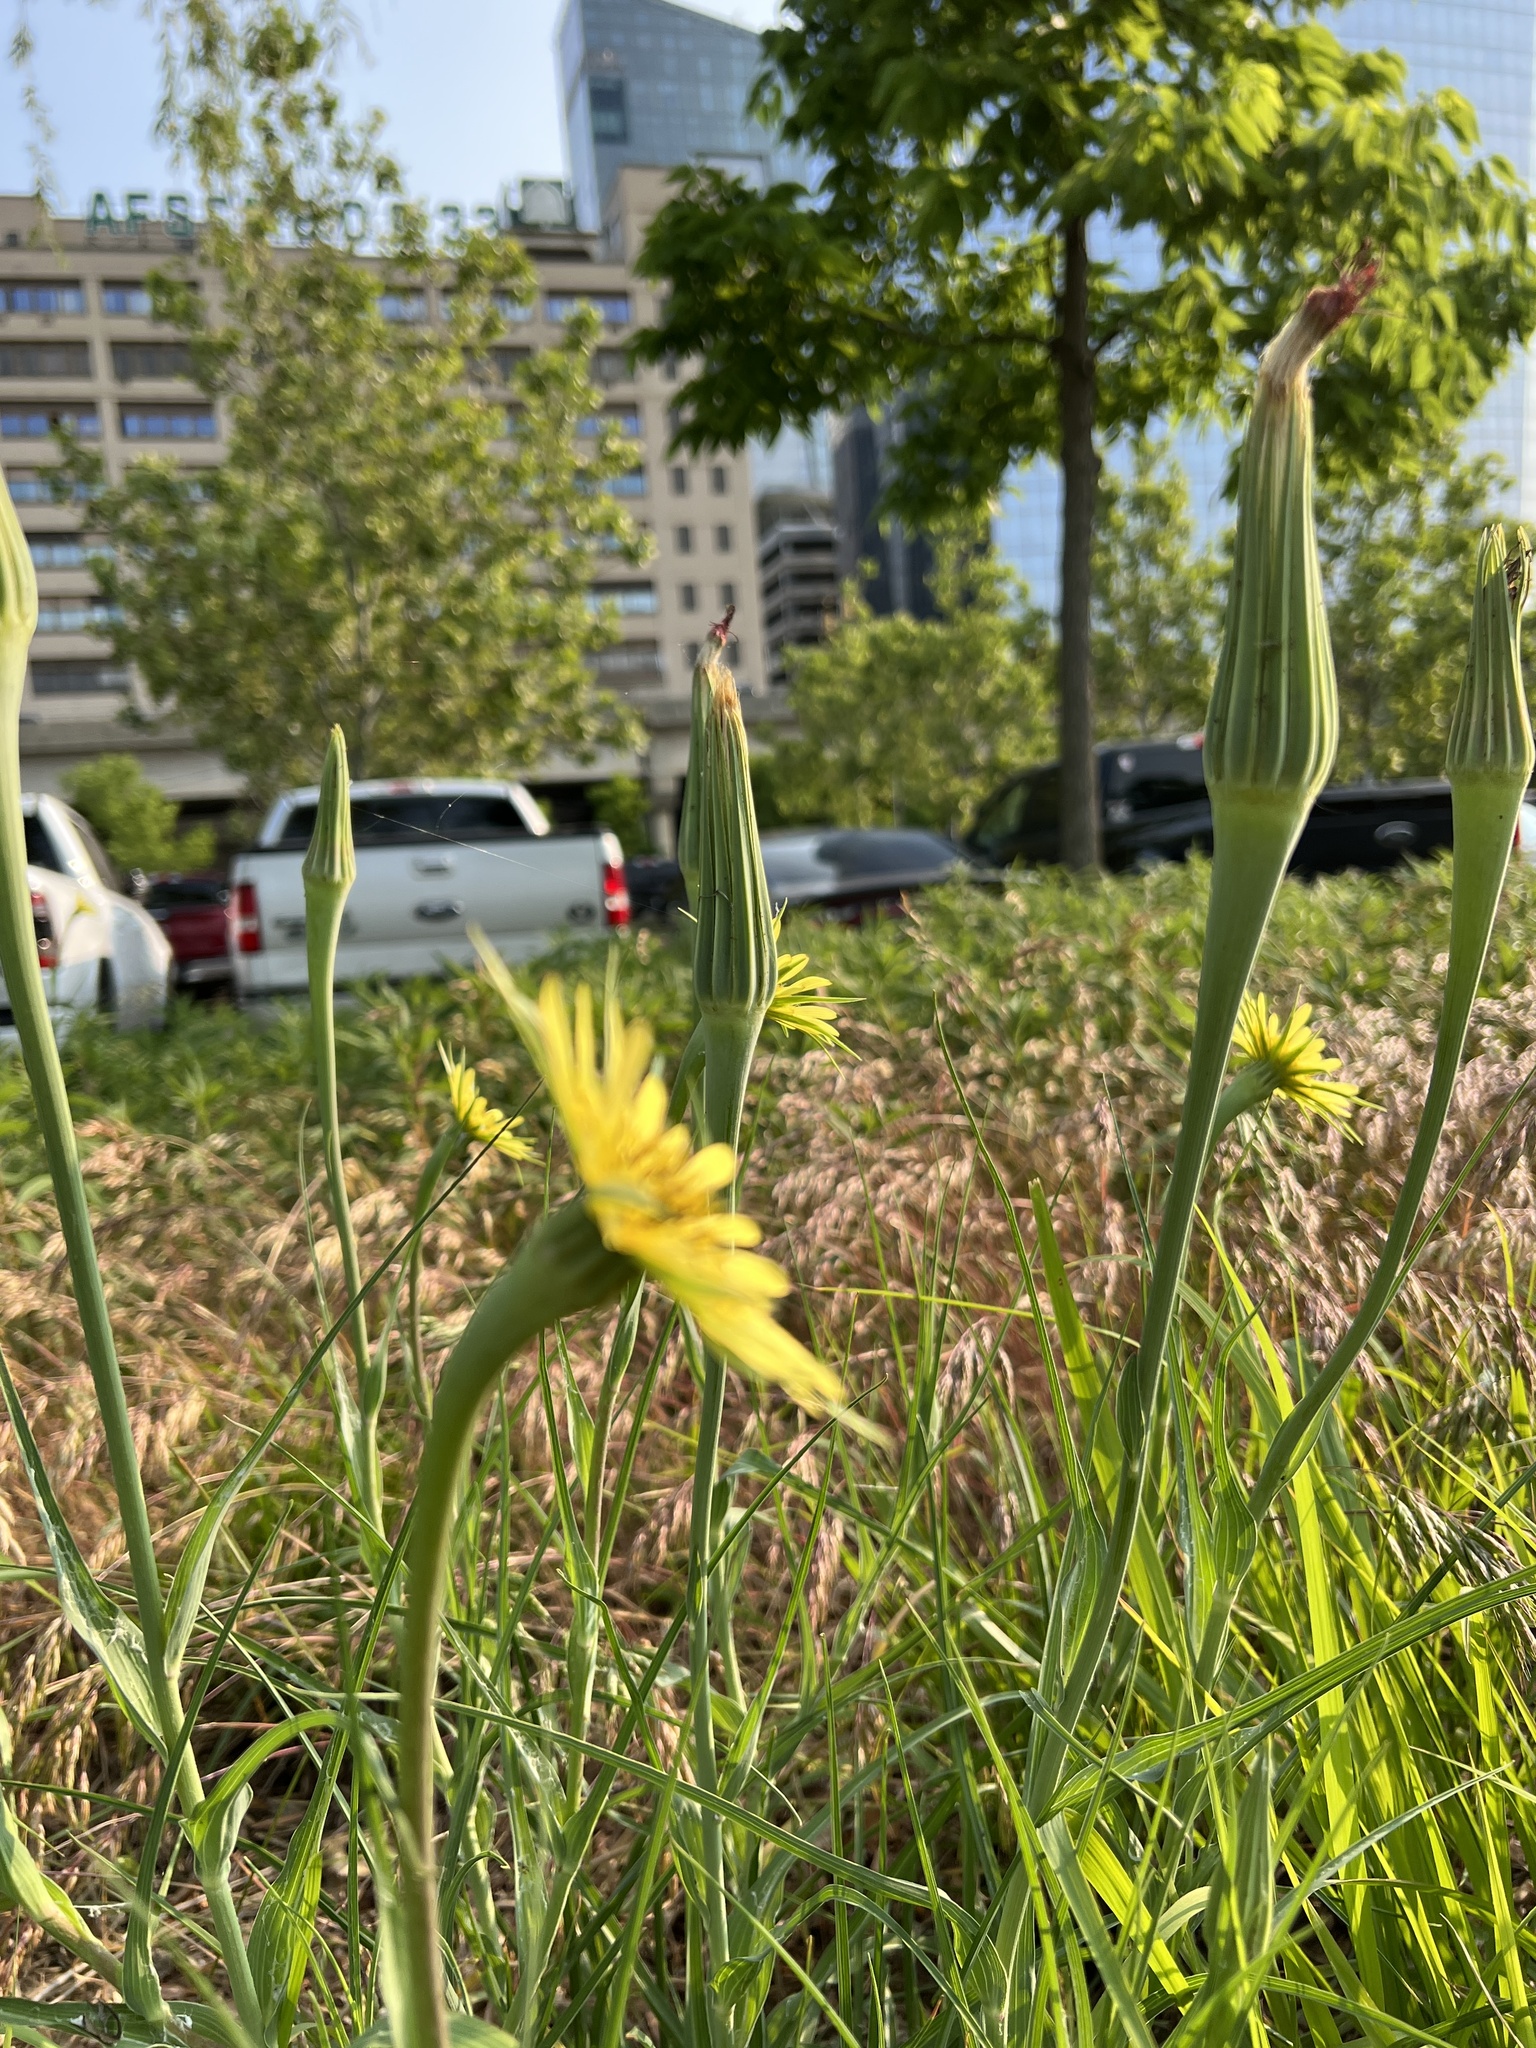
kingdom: Plantae
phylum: Tracheophyta
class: Magnoliopsida
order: Asterales
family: Asteraceae
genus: Tragopogon
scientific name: Tragopogon dubius
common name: Yellow salsify
